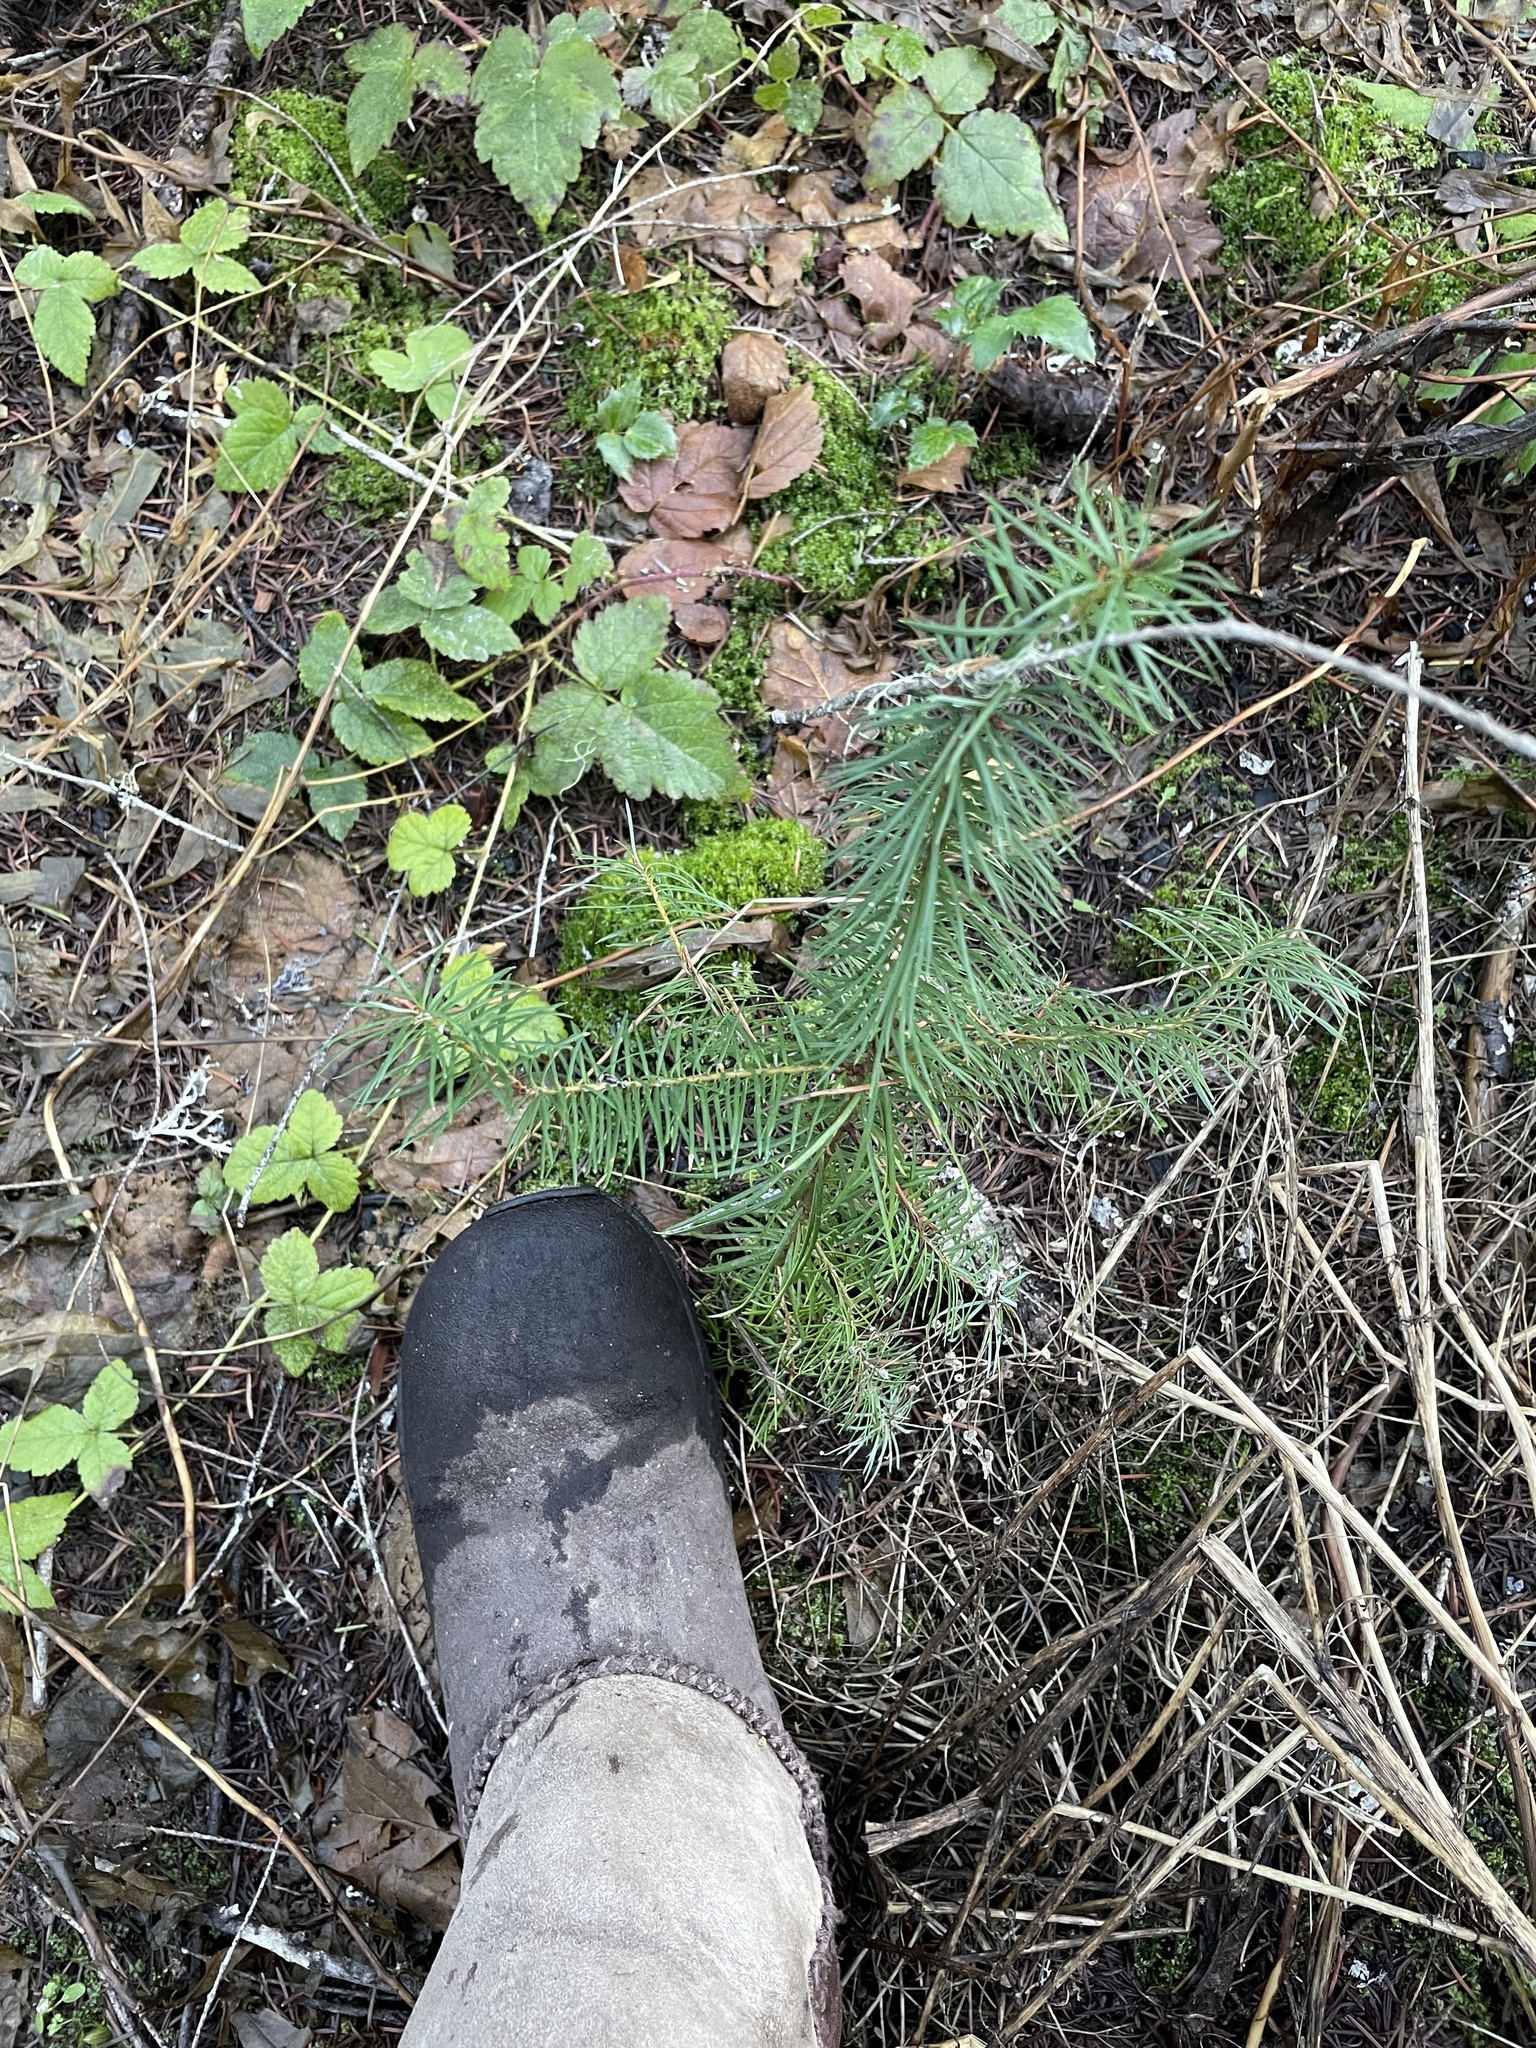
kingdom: Plantae
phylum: Tracheophyta
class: Pinopsida
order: Pinales
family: Pinaceae
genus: Pseudotsuga
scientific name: Pseudotsuga menziesii
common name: Douglas fir
